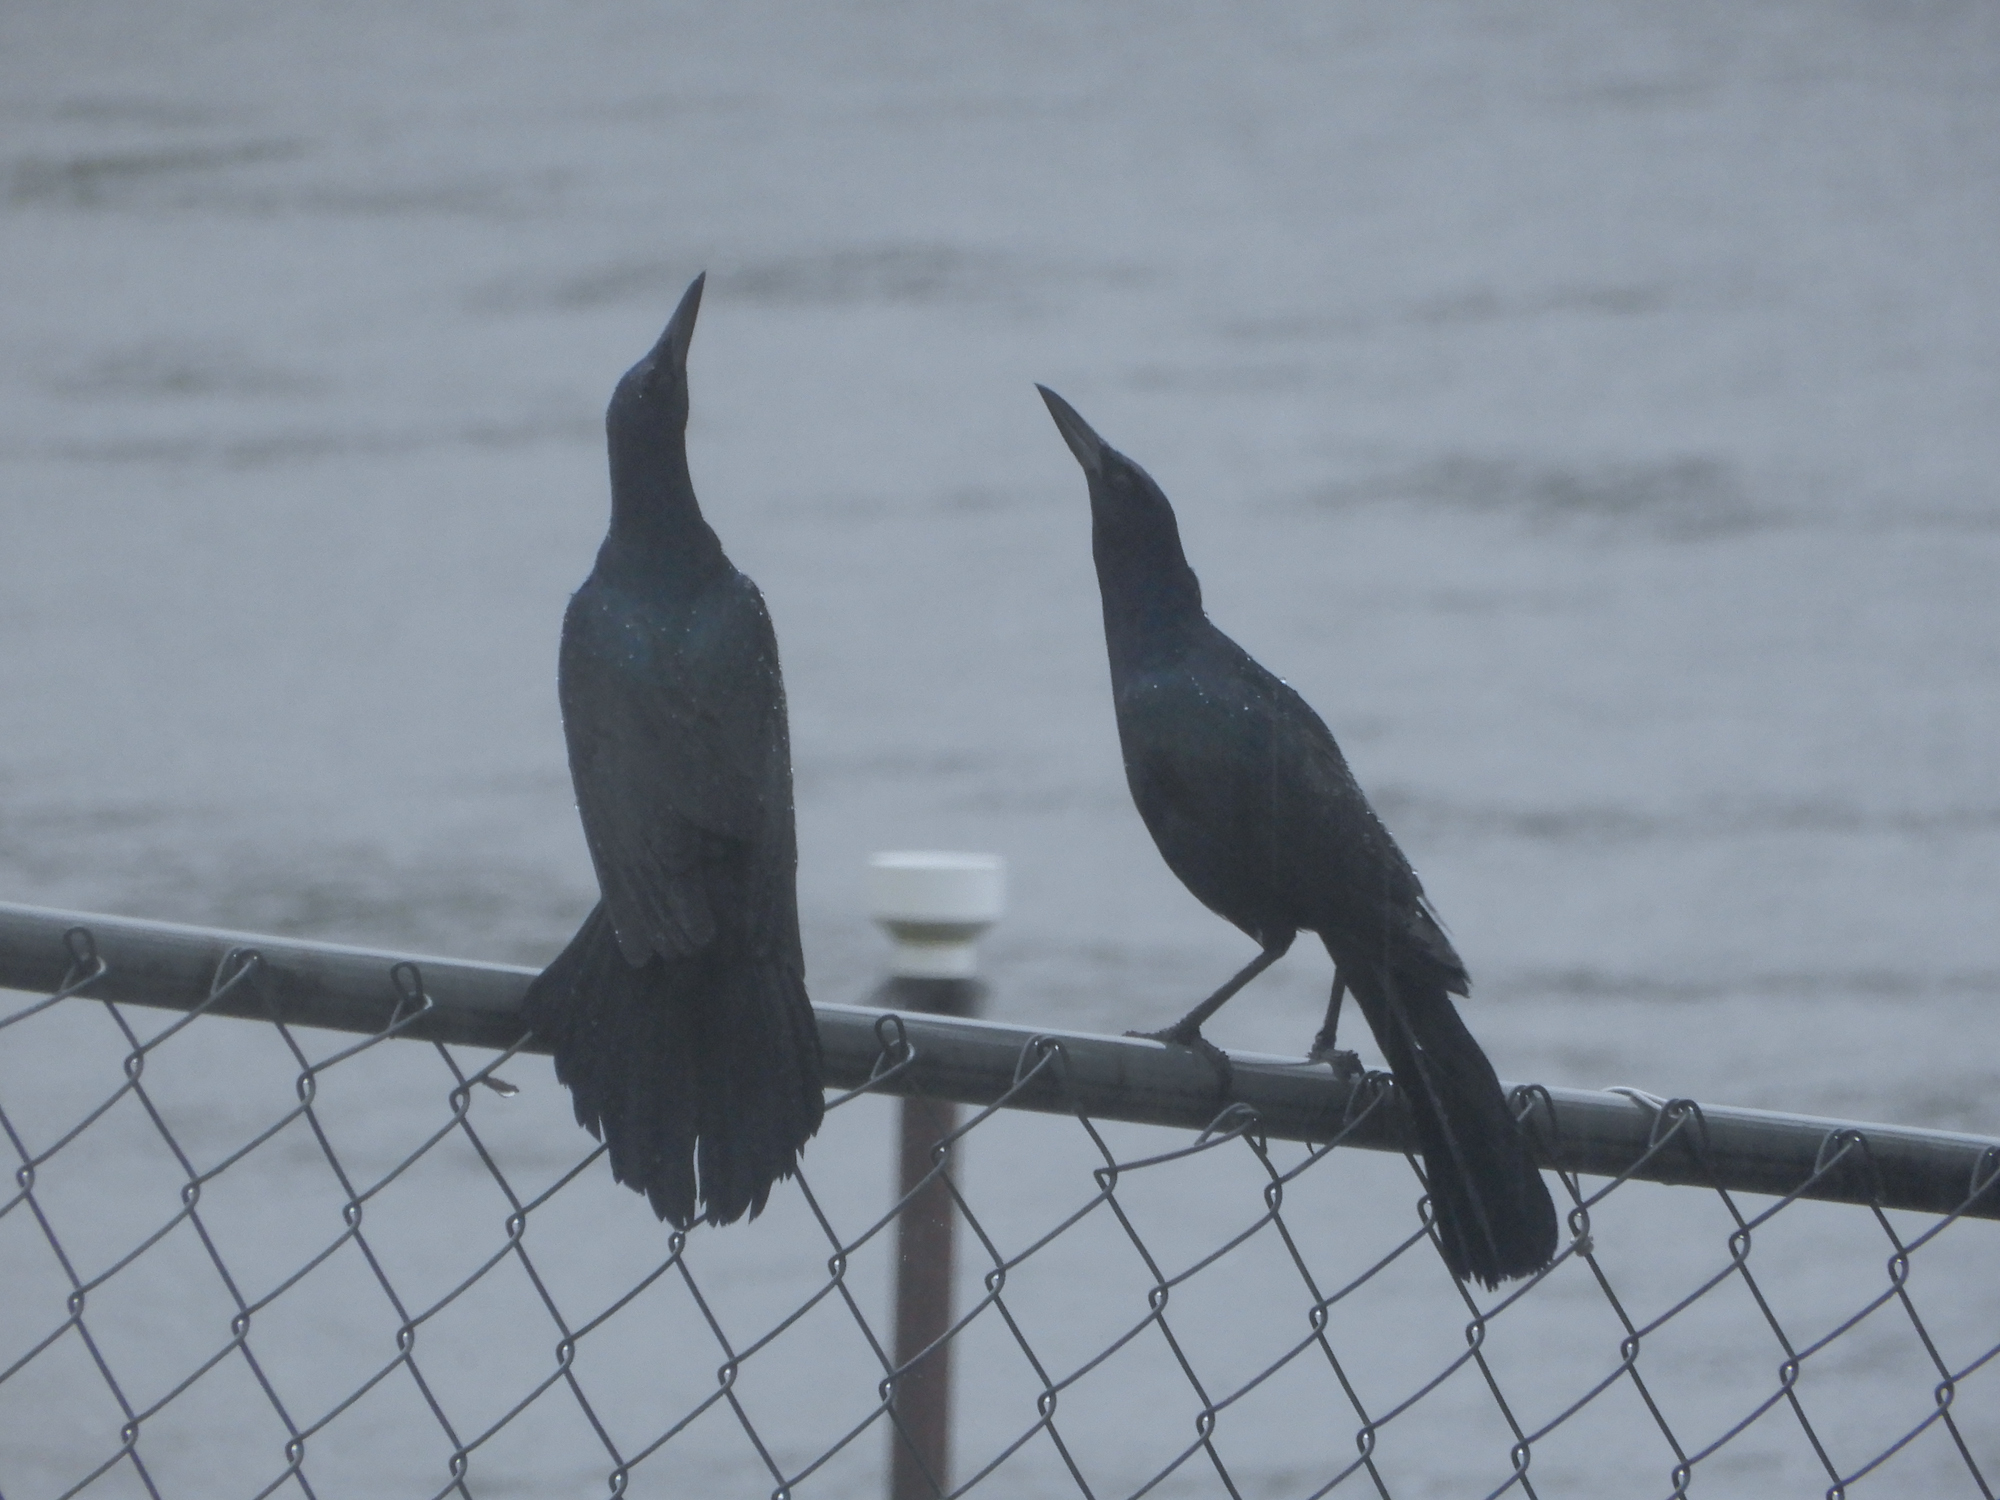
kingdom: Animalia
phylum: Chordata
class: Aves
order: Passeriformes
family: Icteridae
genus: Quiscalus
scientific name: Quiscalus major
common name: Boat-tailed grackle
